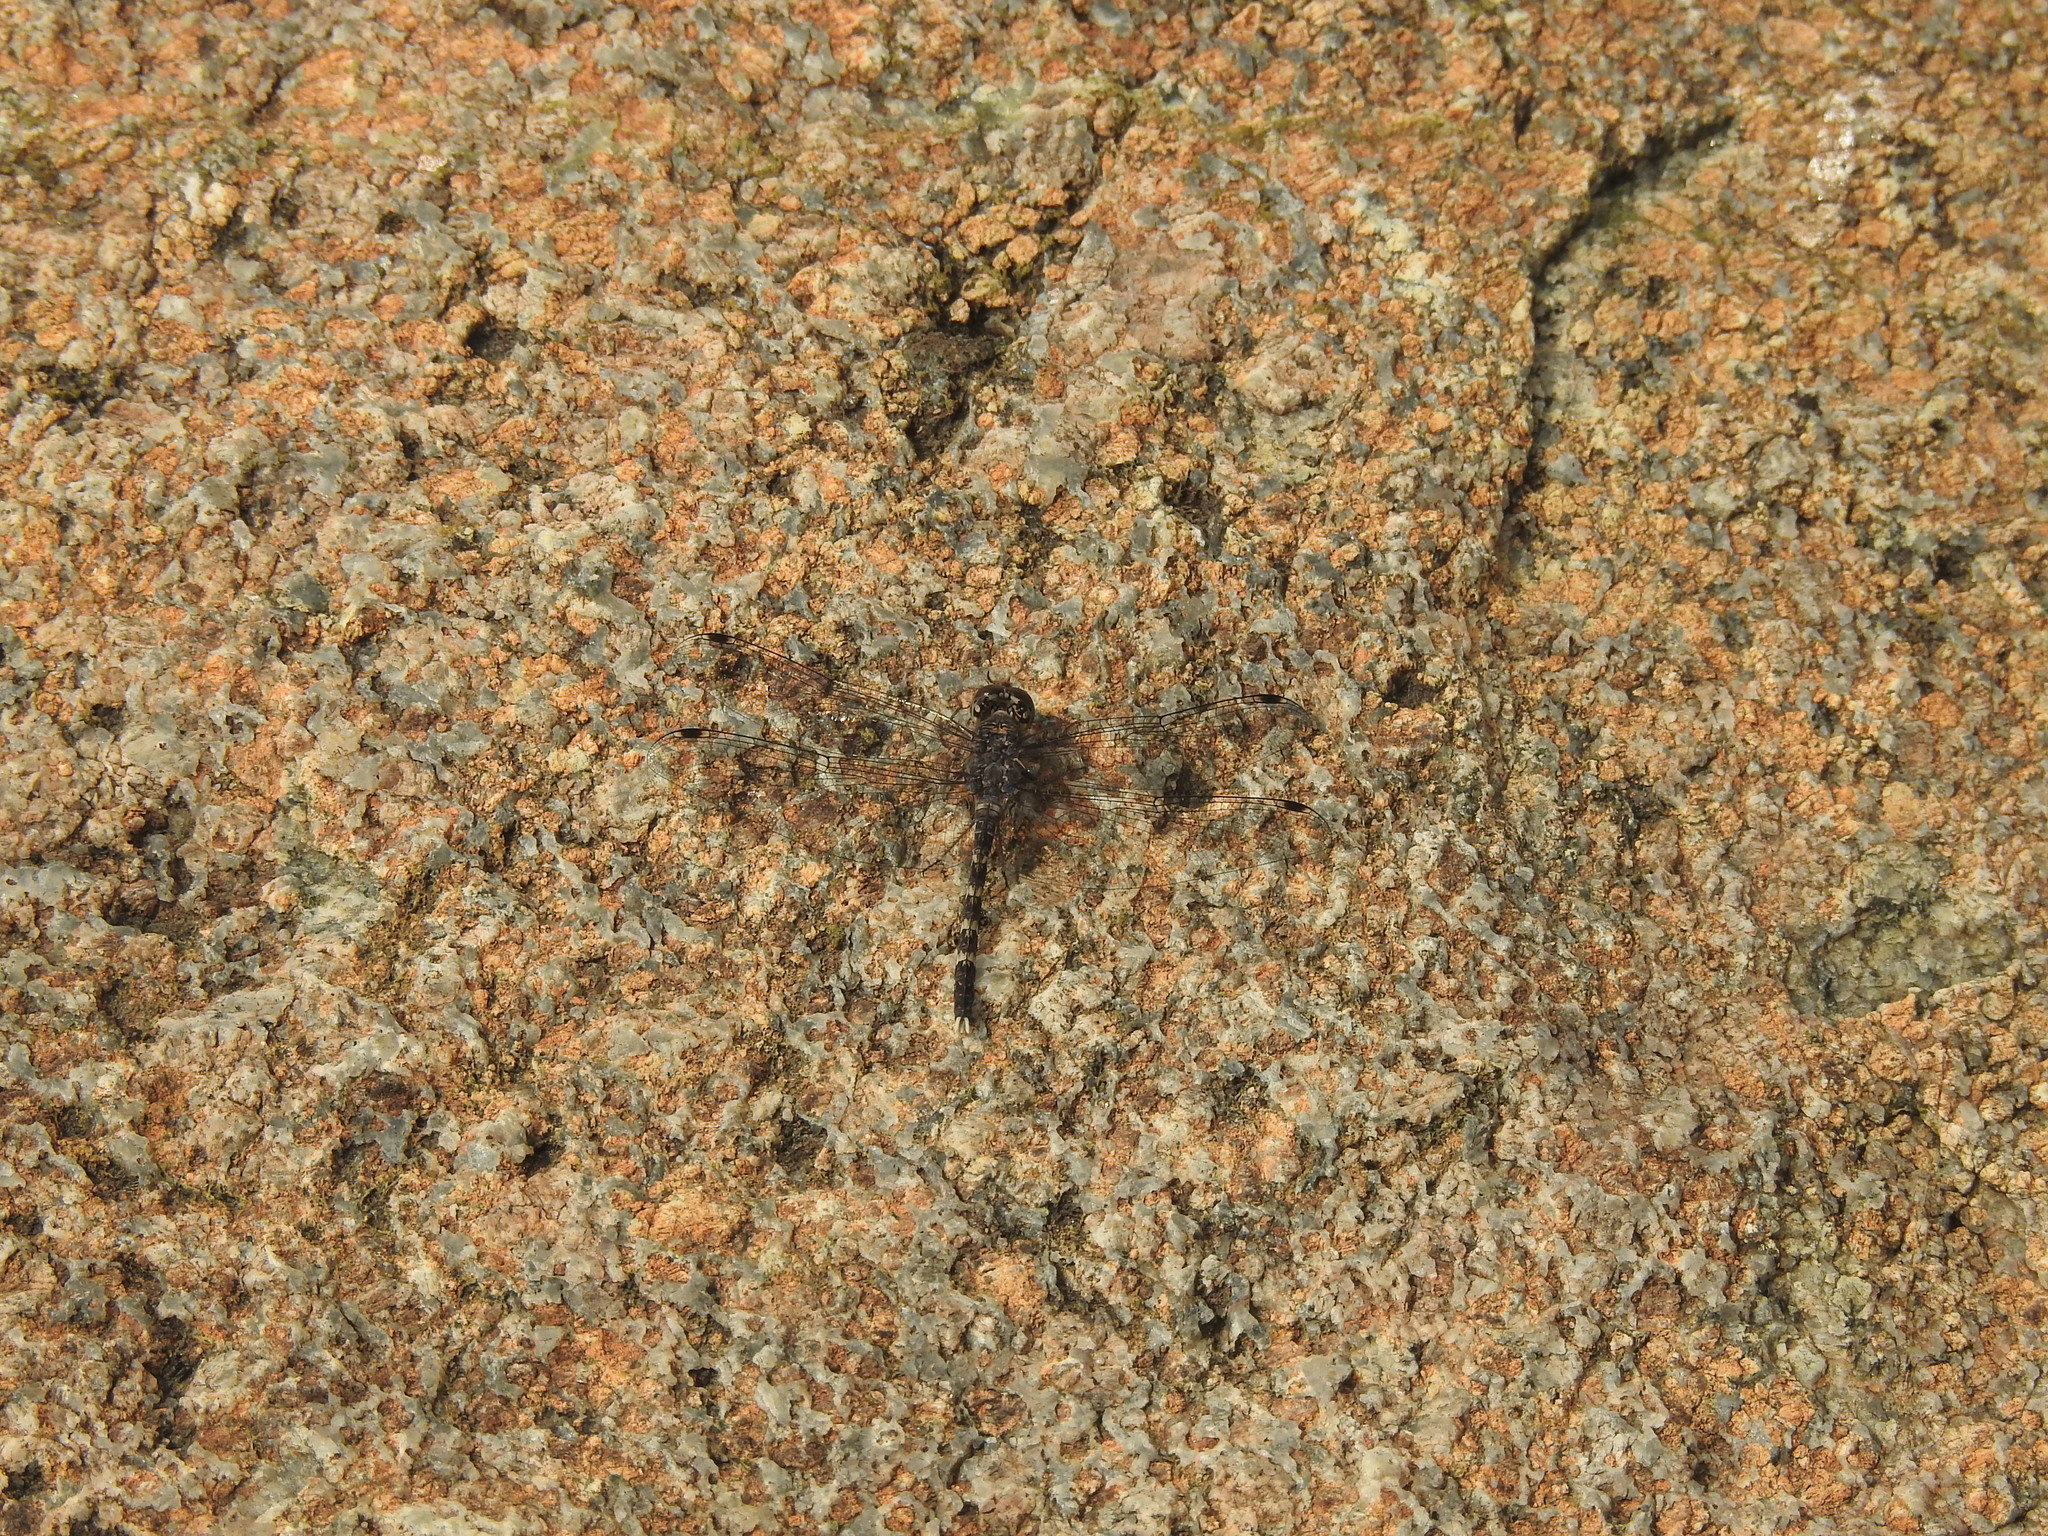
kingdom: Animalia
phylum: Arthropoda
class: Insecta
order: Odonata
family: Libellulidae
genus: Bradinopyga
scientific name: Bradinopyga geminata
